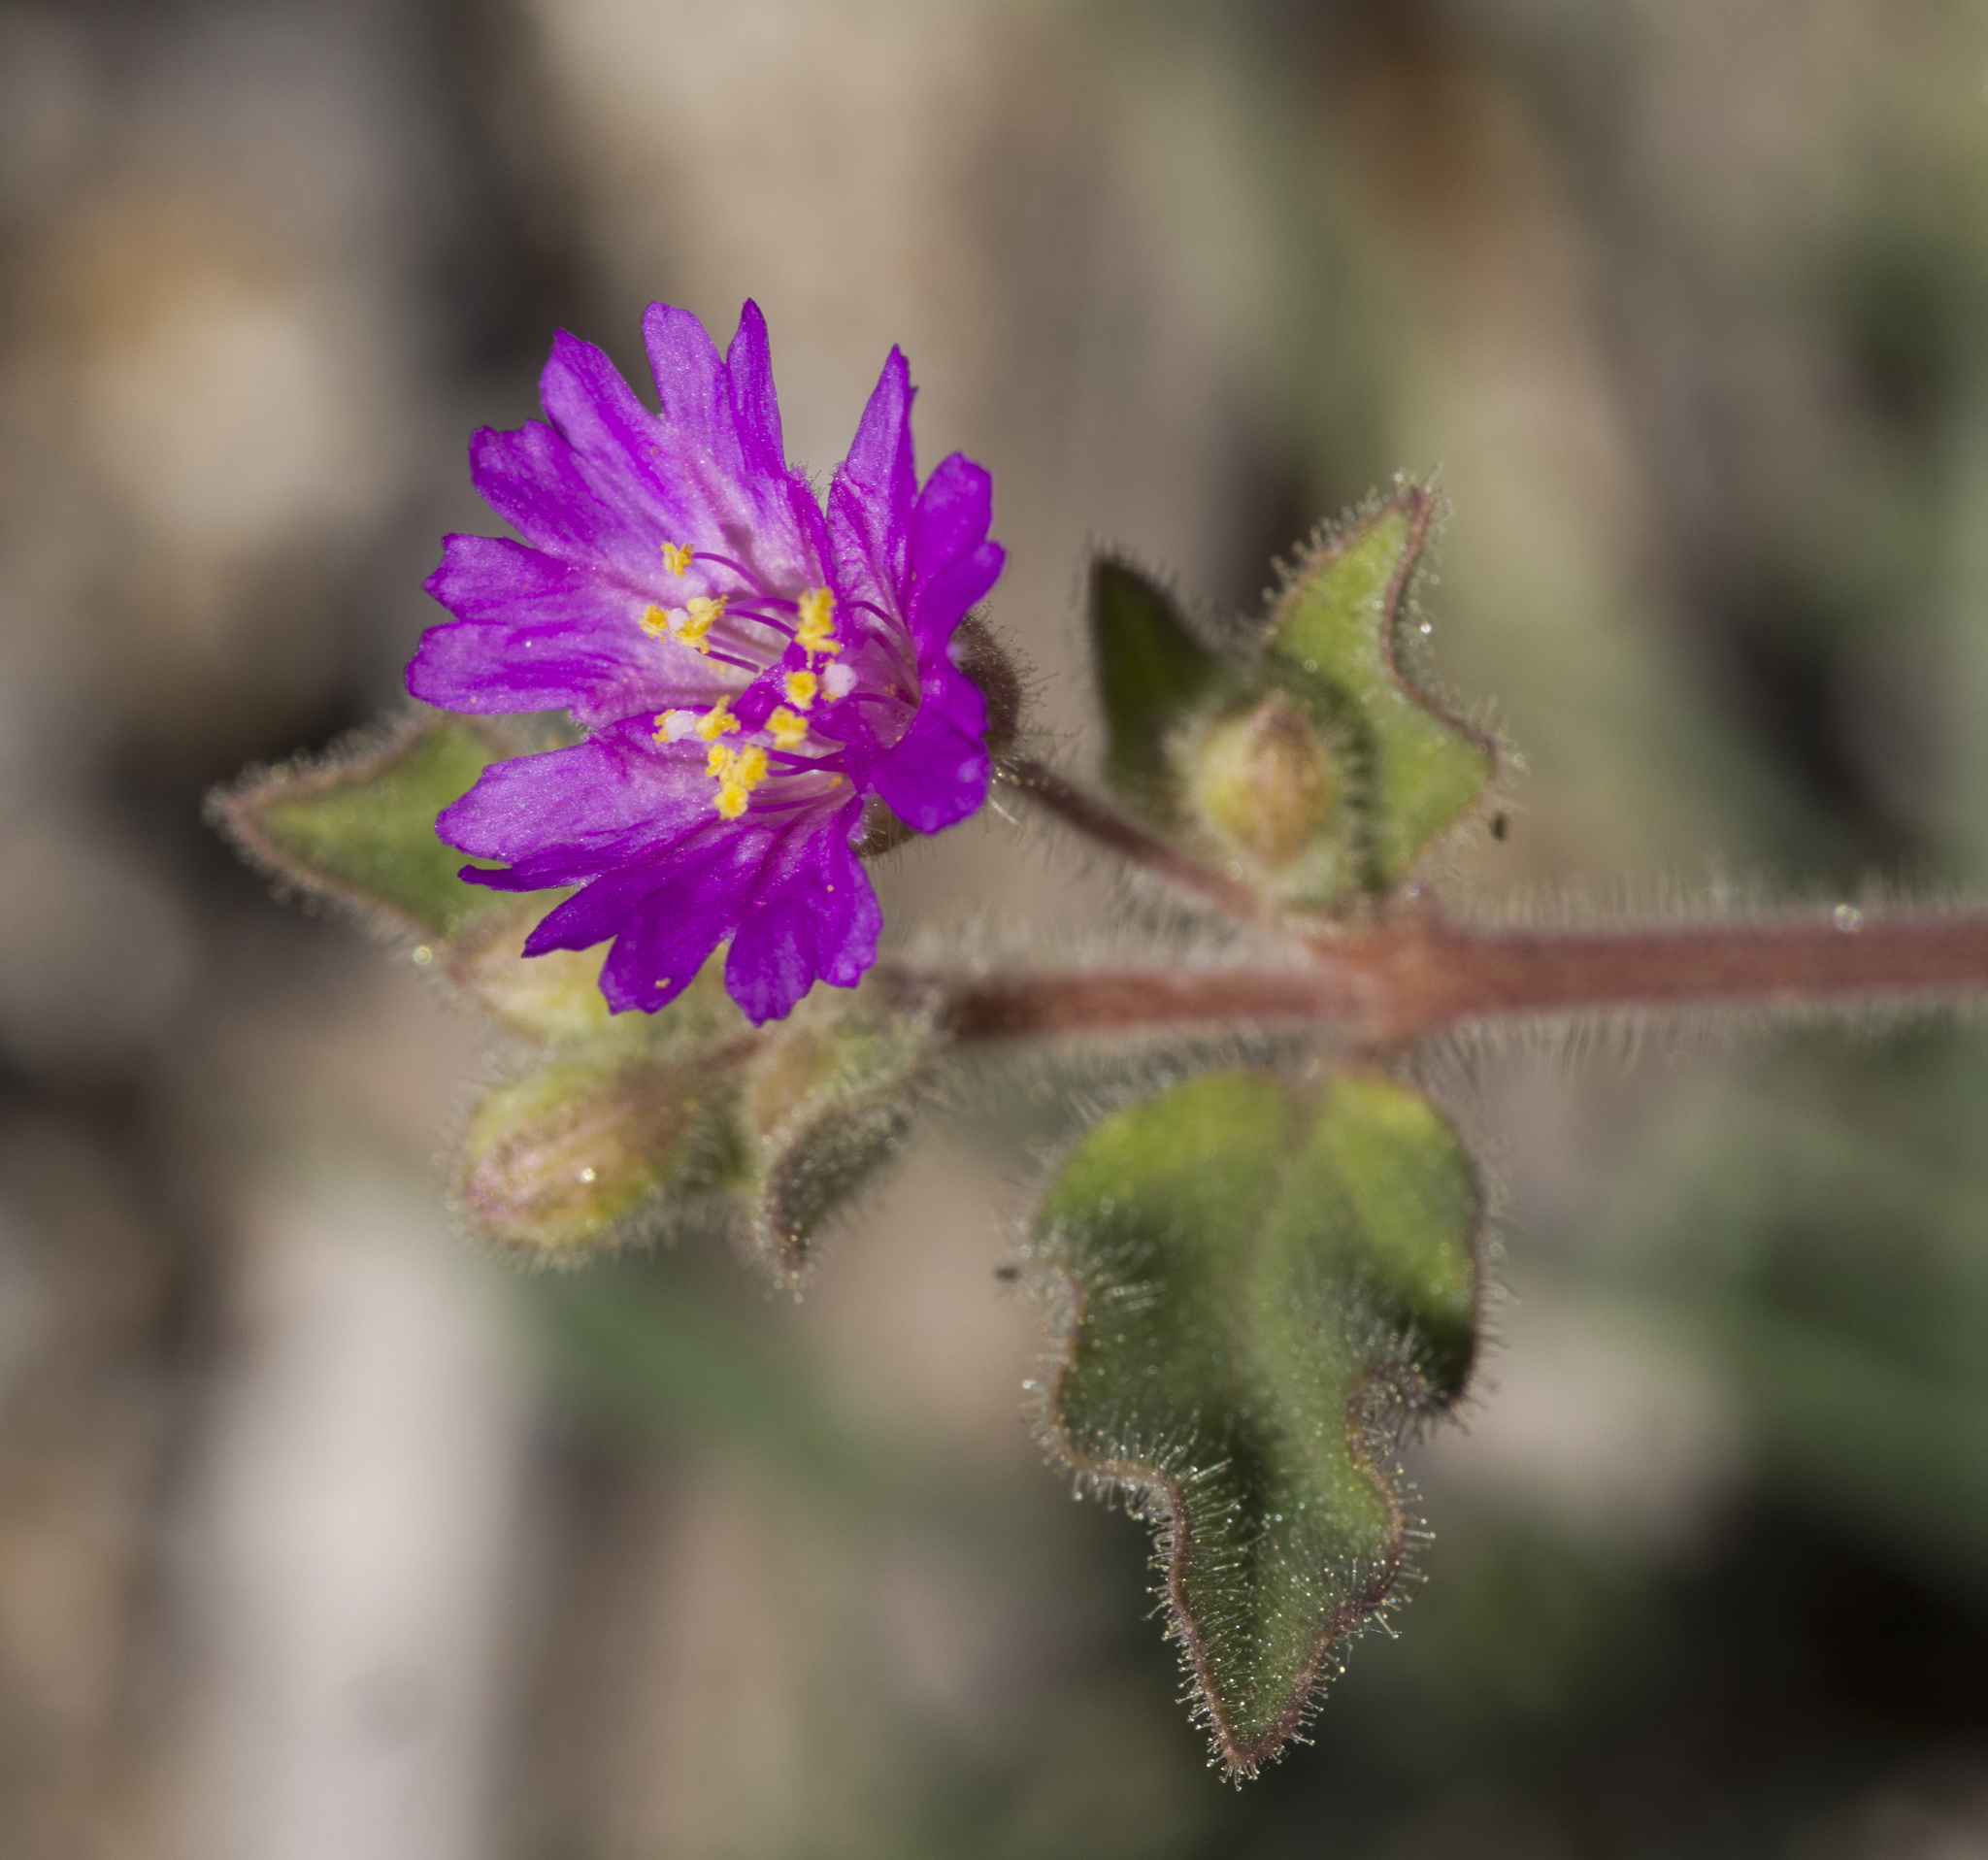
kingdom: Plantae
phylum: Tracheophyta
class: Magnoliopsida
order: Caryophyllales
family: Nyctaginaceae
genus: Allionia
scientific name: Allionia incarnata
